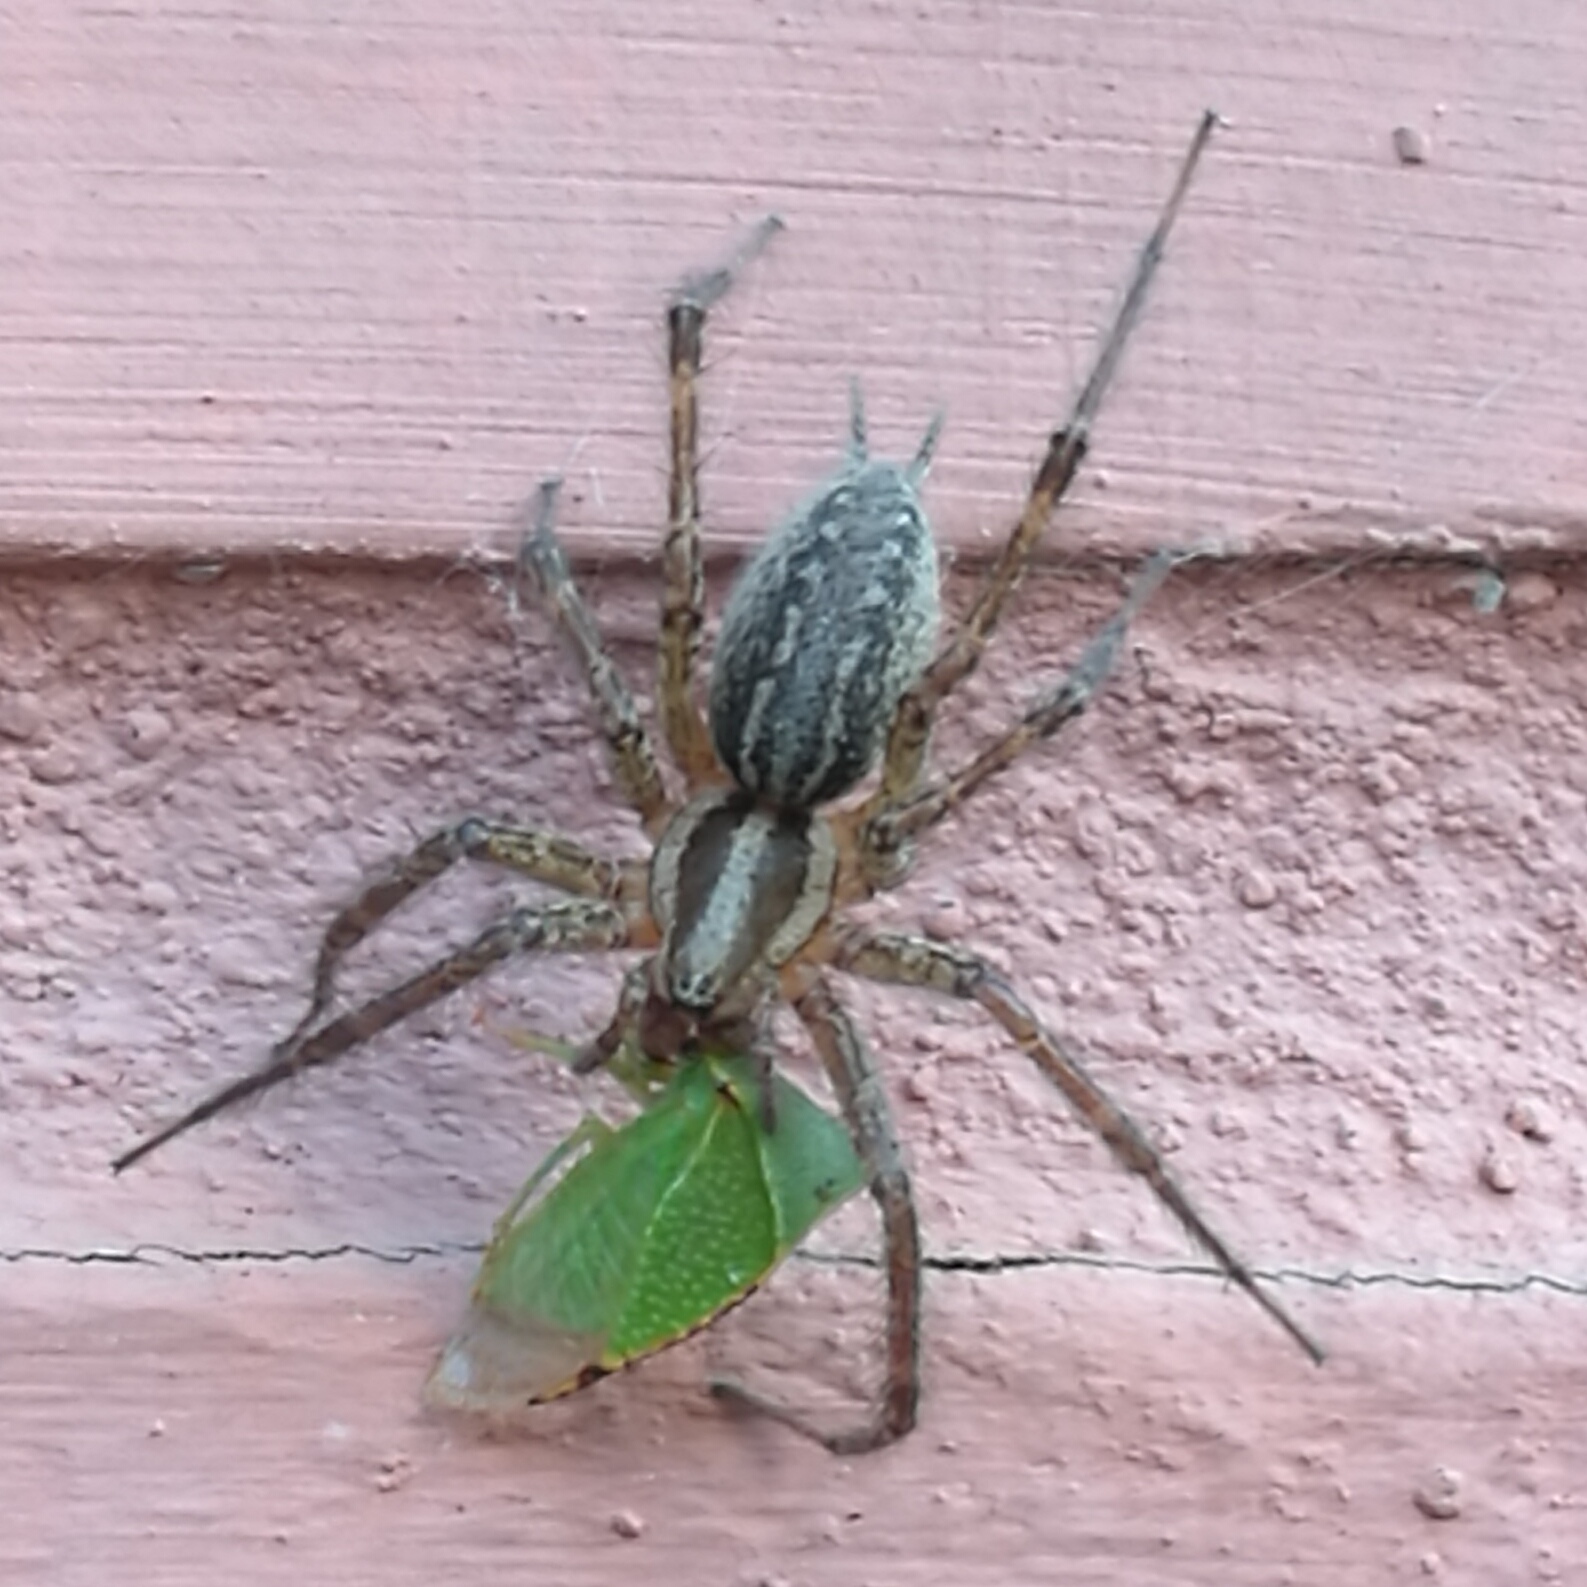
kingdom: Animalia
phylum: Arthropoda
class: Arachnida
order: Araneae
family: Agelenidae
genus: Agelenopsis
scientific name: Agelenopsis potteri
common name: Potter's grass spider
